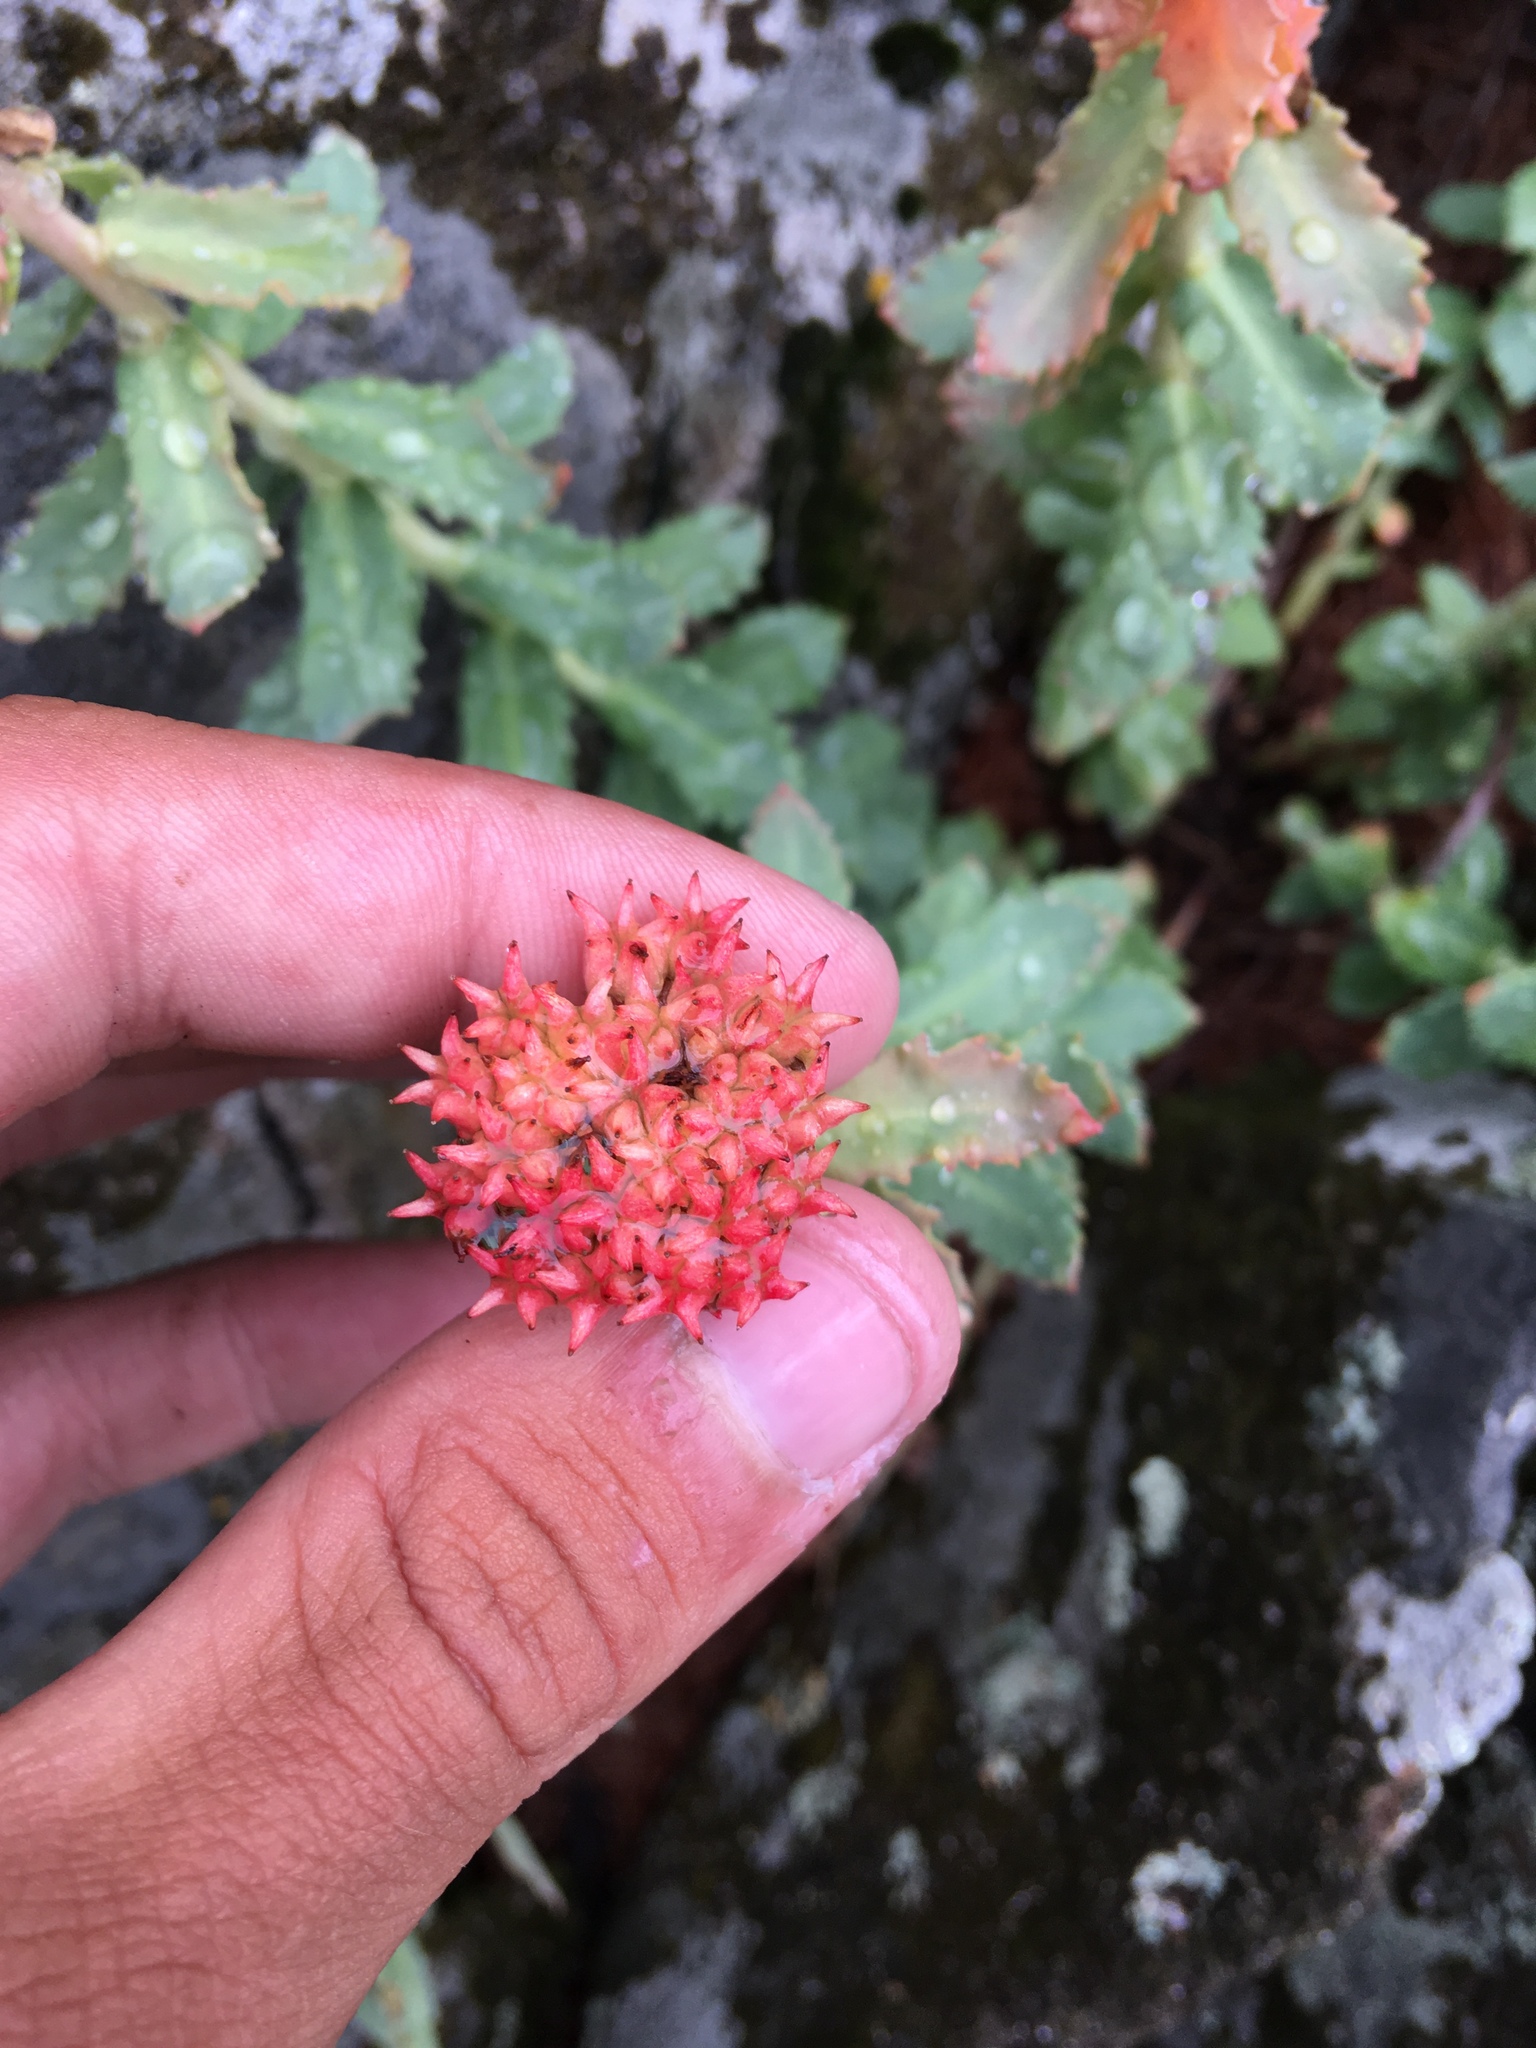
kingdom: Plantae
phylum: Tracheophyta
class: Magnoliopsida
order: Saxifragales
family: Crassulaceae
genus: Rhodiola
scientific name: Rhodiola rosea
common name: Roseroot
